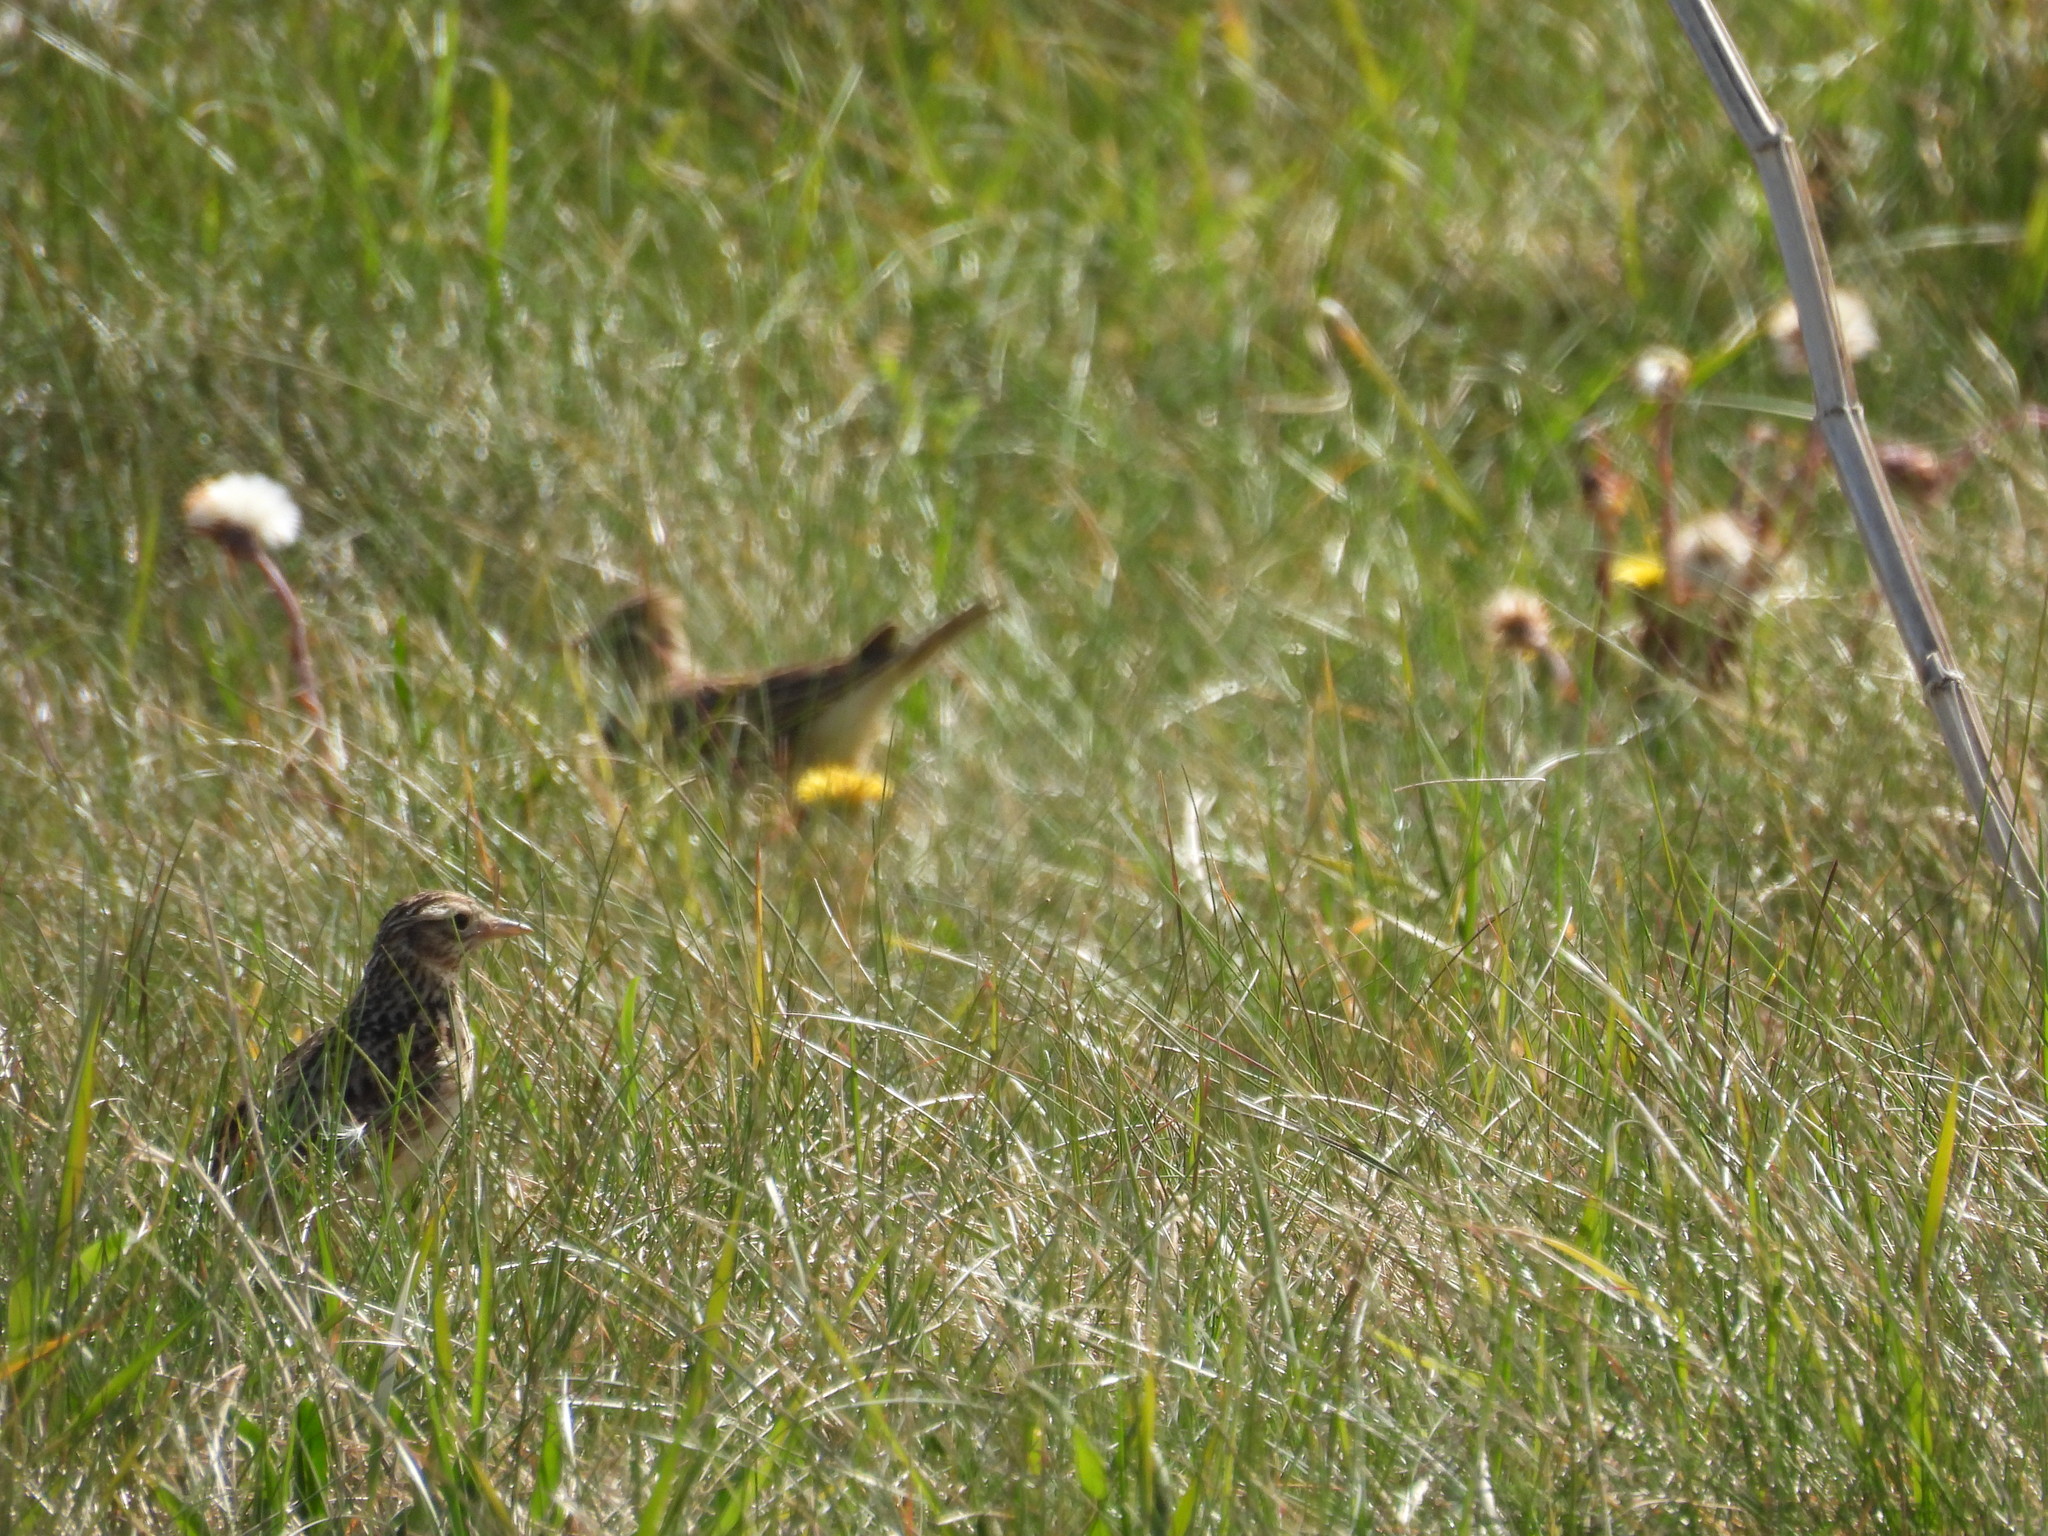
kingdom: Animalia
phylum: Chordata
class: Aves
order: Passeriformes
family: Alaudidae
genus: Alauda
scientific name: Alauda arvensis
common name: Eurasian skylark
